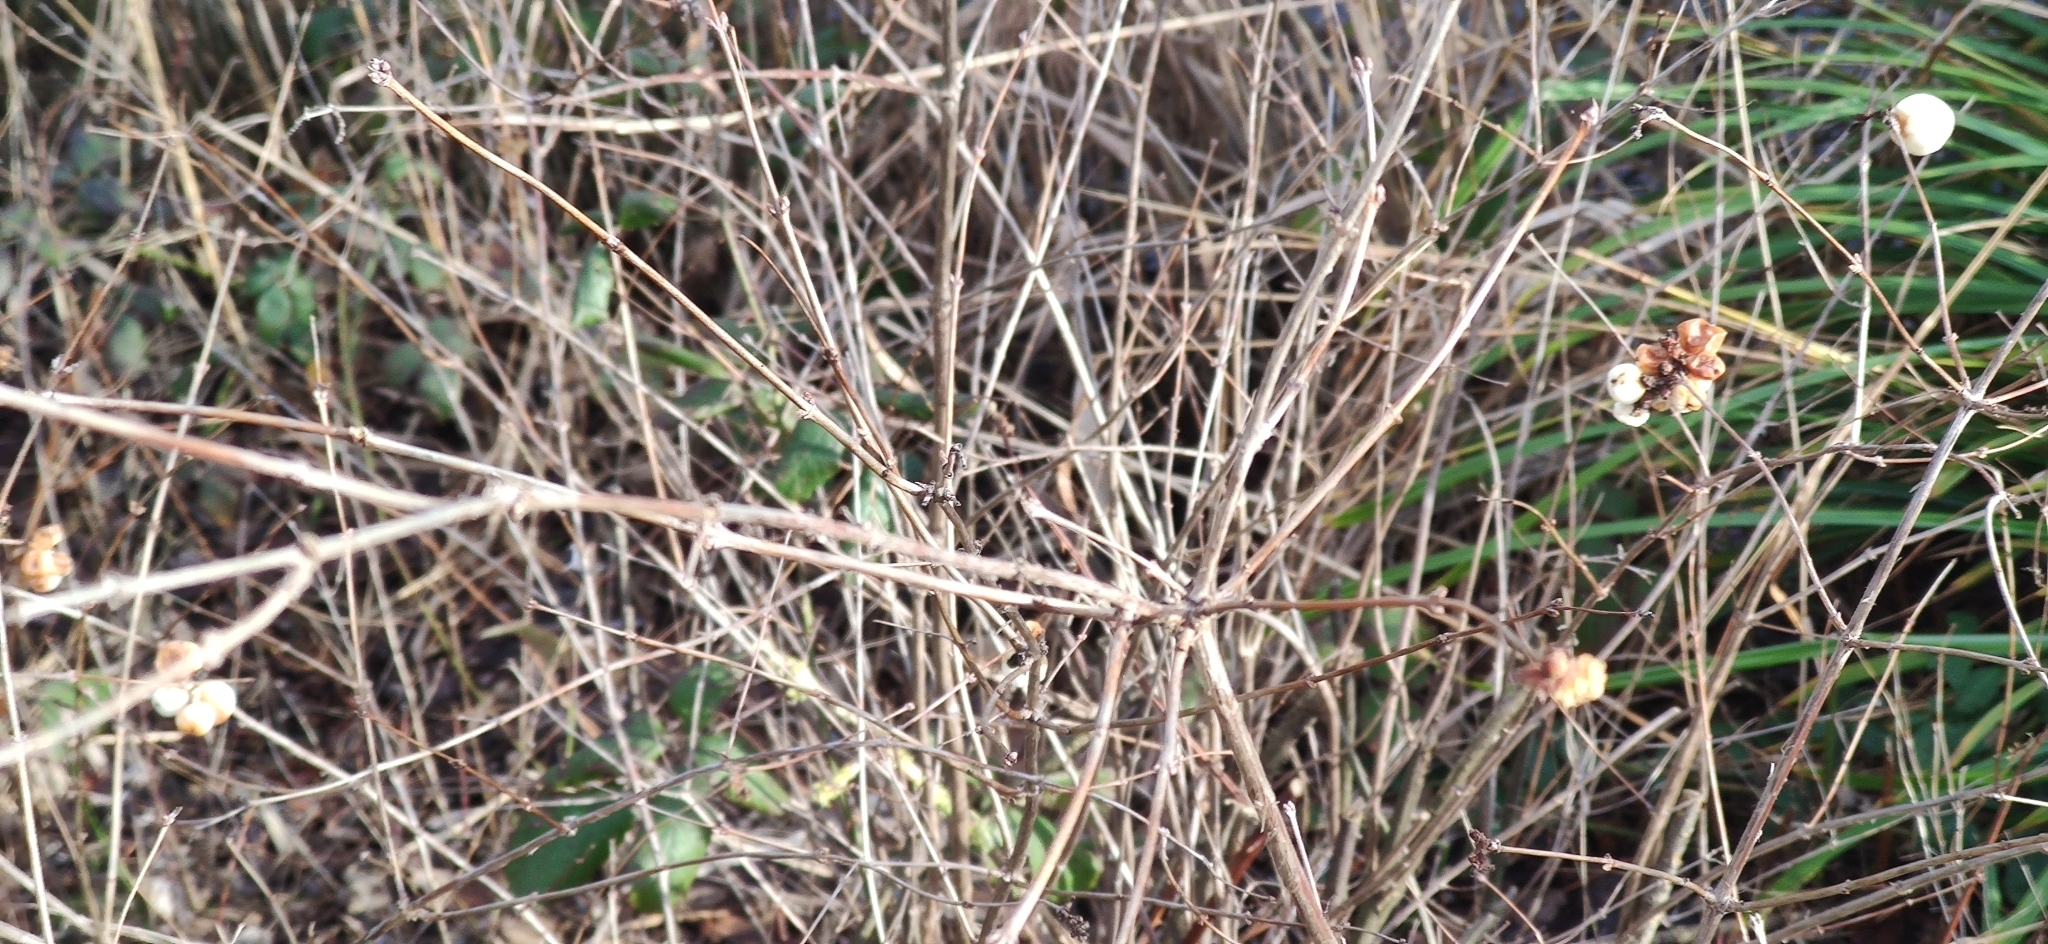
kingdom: Plantae
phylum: Tracheophyta
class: Magnoliopsida
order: Dipsacales
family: Caprifoliaceae
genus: Symphoricarpos
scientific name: Symphoricarpos albus
